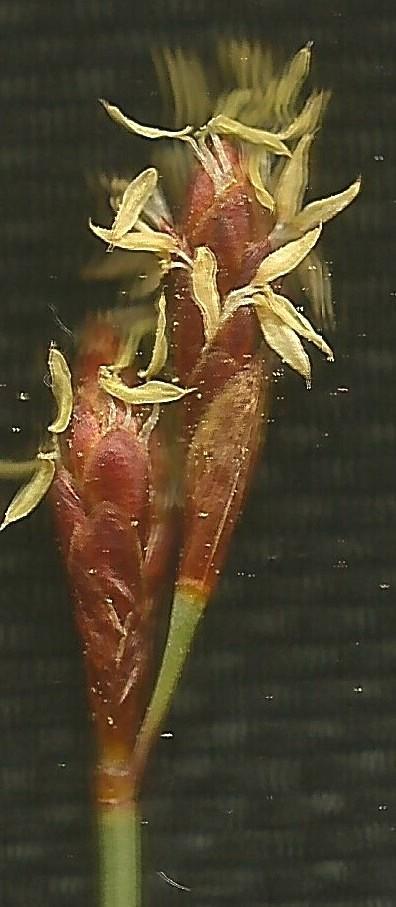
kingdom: Plantae
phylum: Tracheophyta
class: Liliopsida
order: Poales
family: Restionaceae
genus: Hypodiscus
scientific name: Hypodiscus striatus
